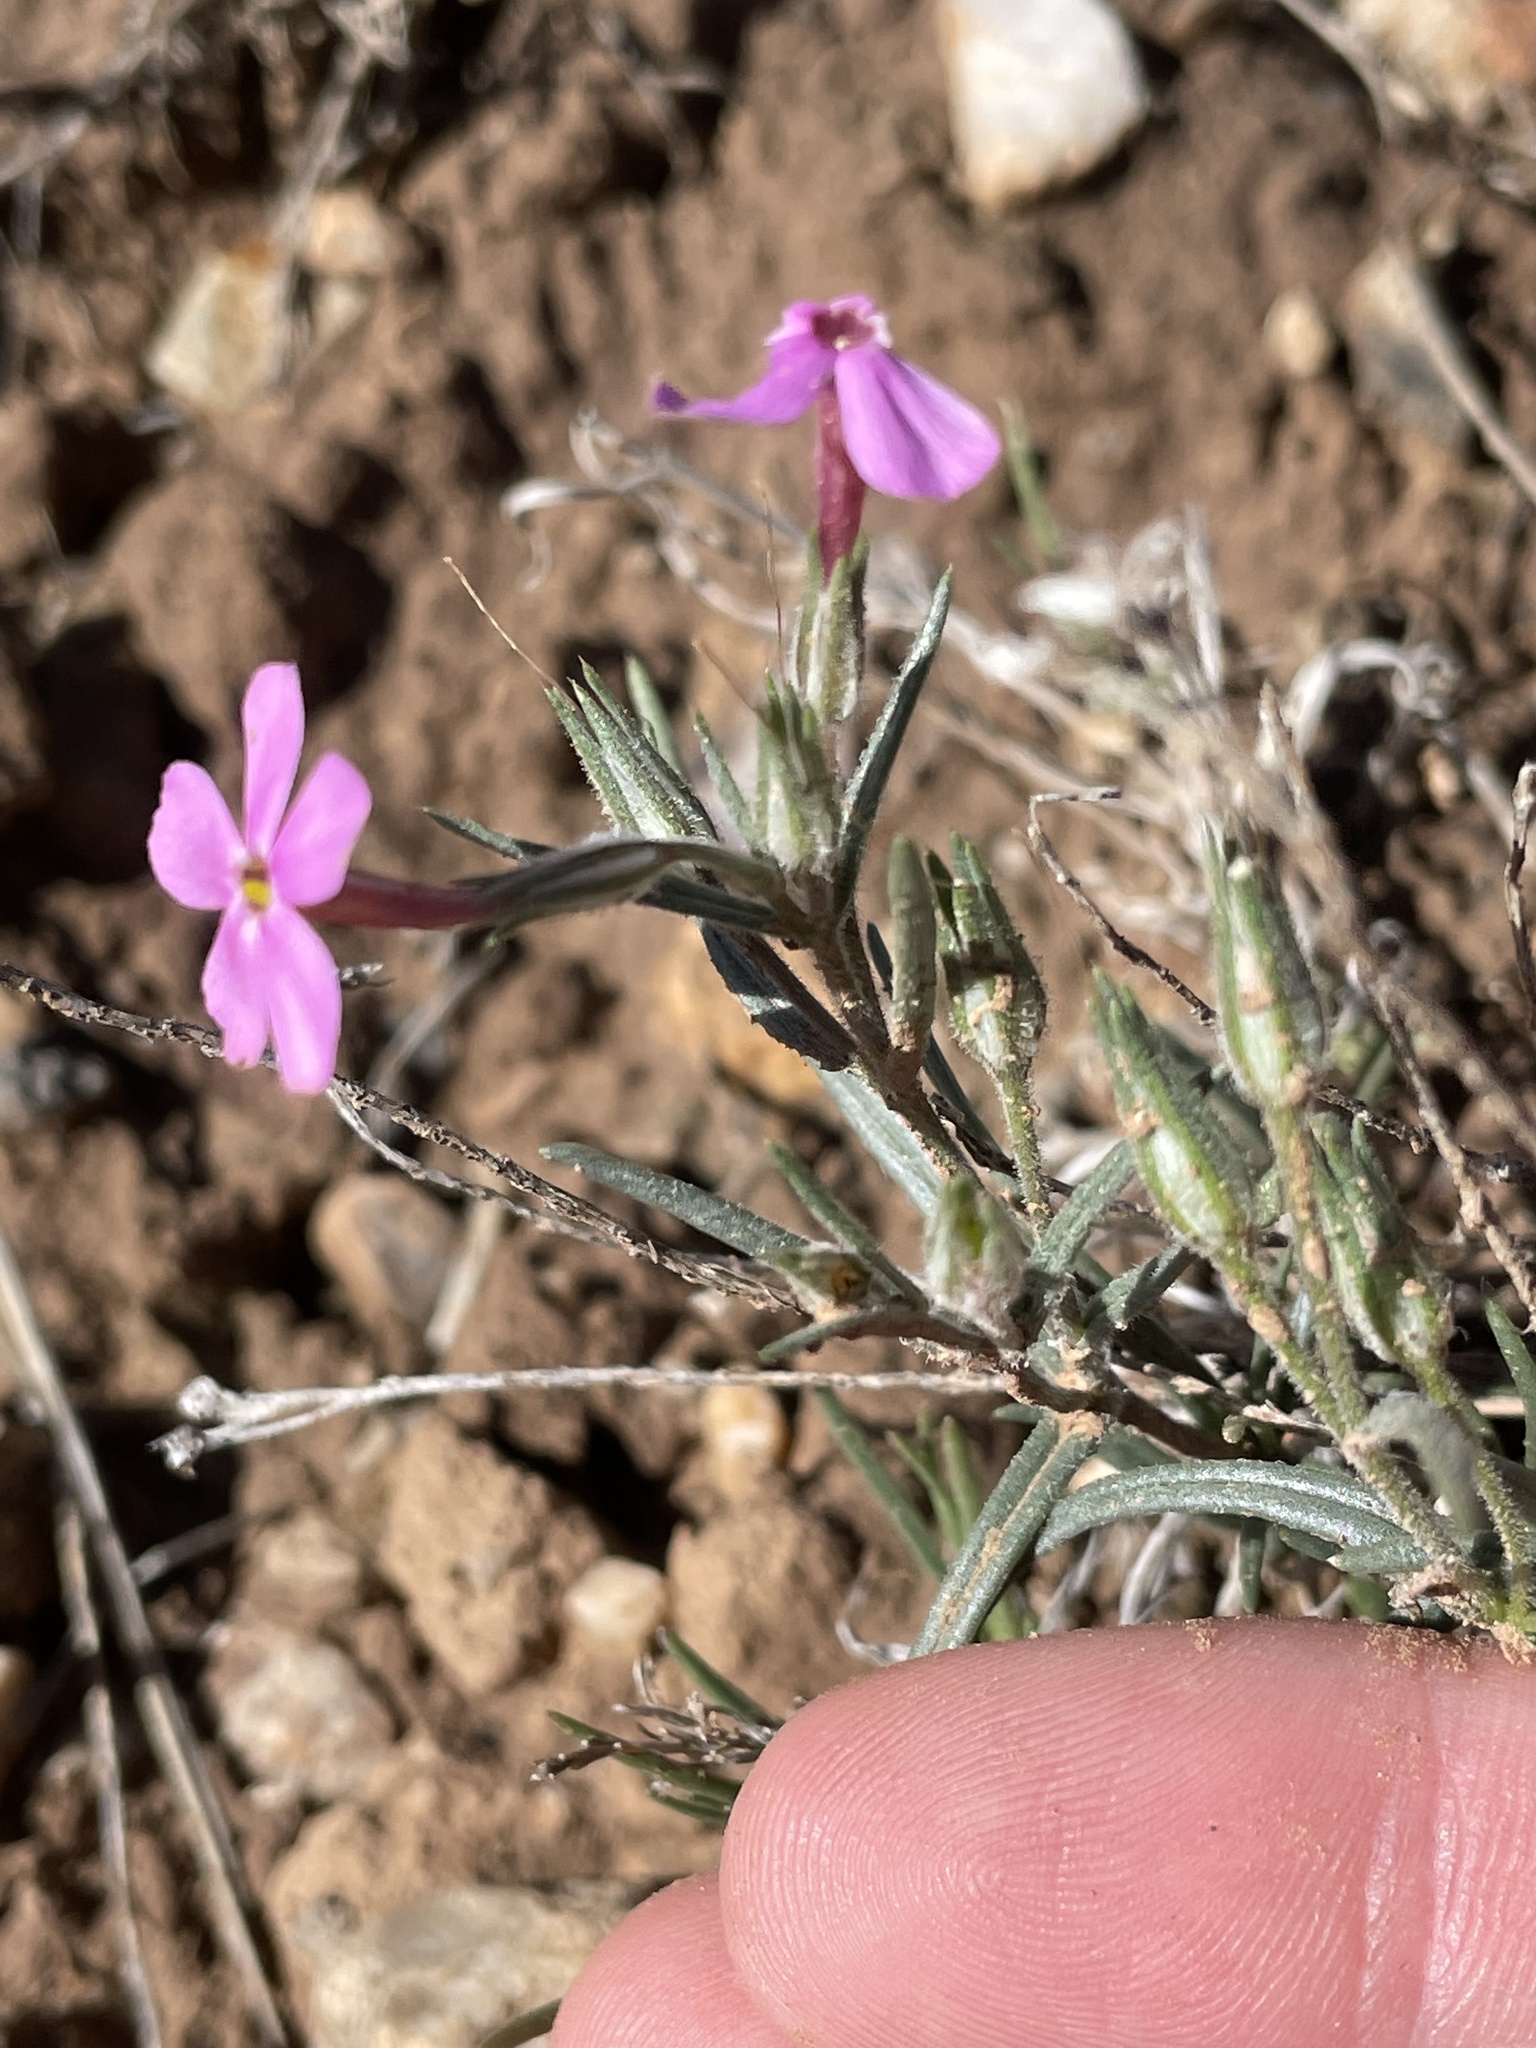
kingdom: Plantae
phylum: Tracheophyta
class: Magnoliopsida
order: Ericales
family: Polemoniaceae
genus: Phlox
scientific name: Phlox longifolia
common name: Longleaf phlox
